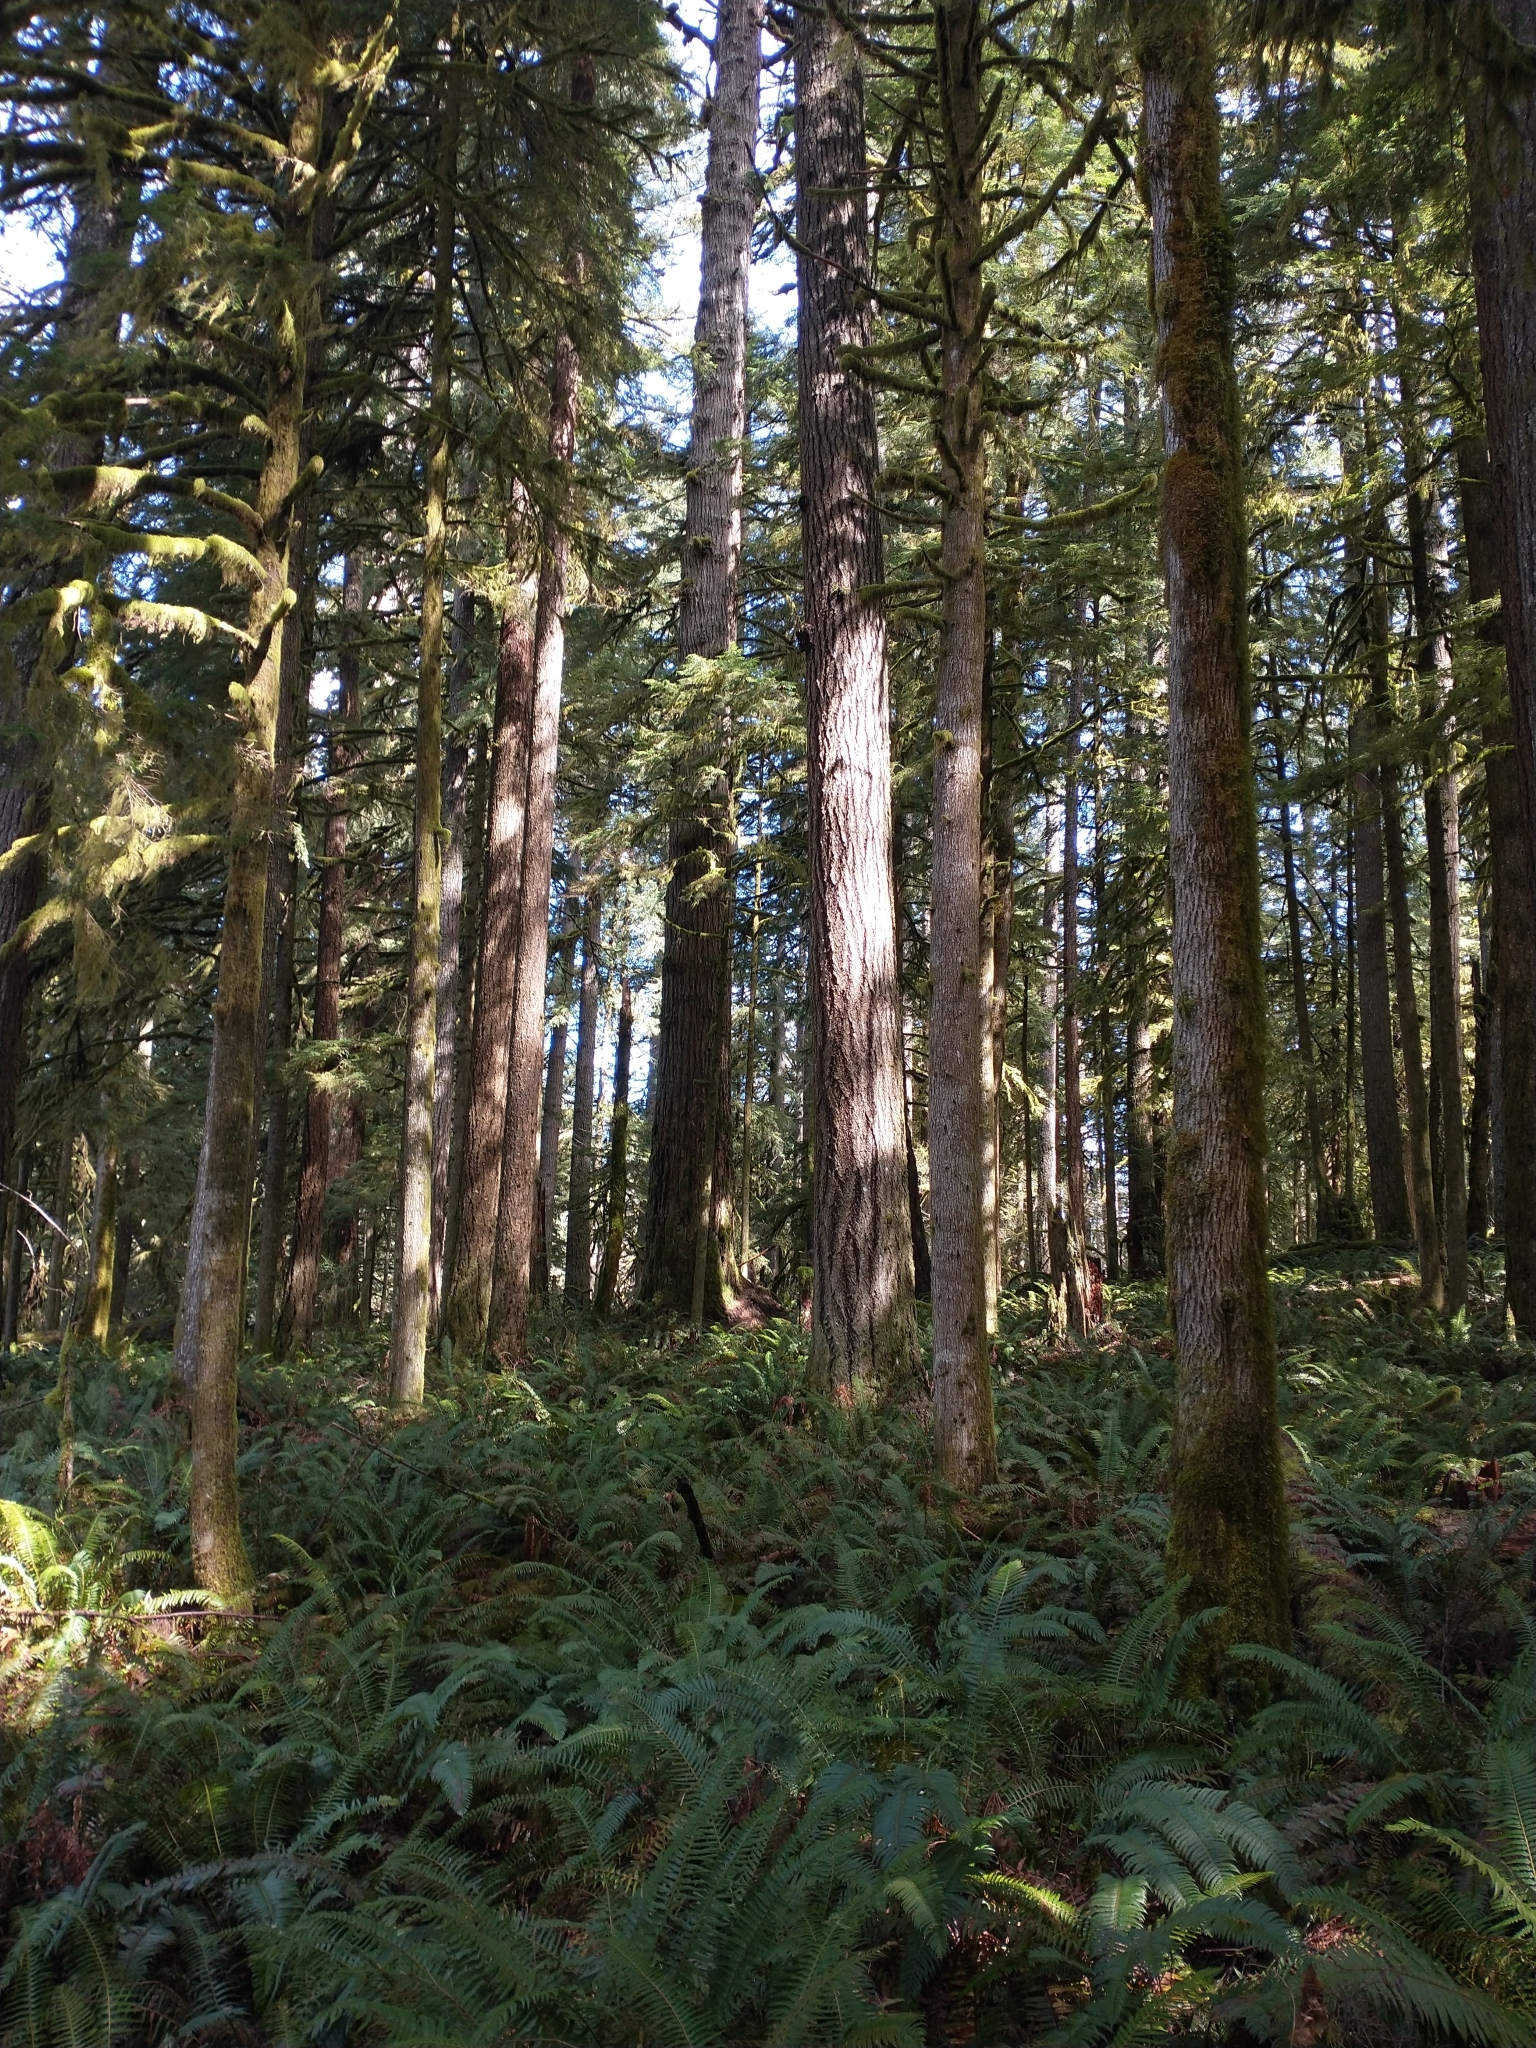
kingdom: Plantae
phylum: Tracheophyta
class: Pinopsida
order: Pinales
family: Pinaceae
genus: Pseudotsuga
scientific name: Pseudotsuga menziesii
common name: Douglas fir
